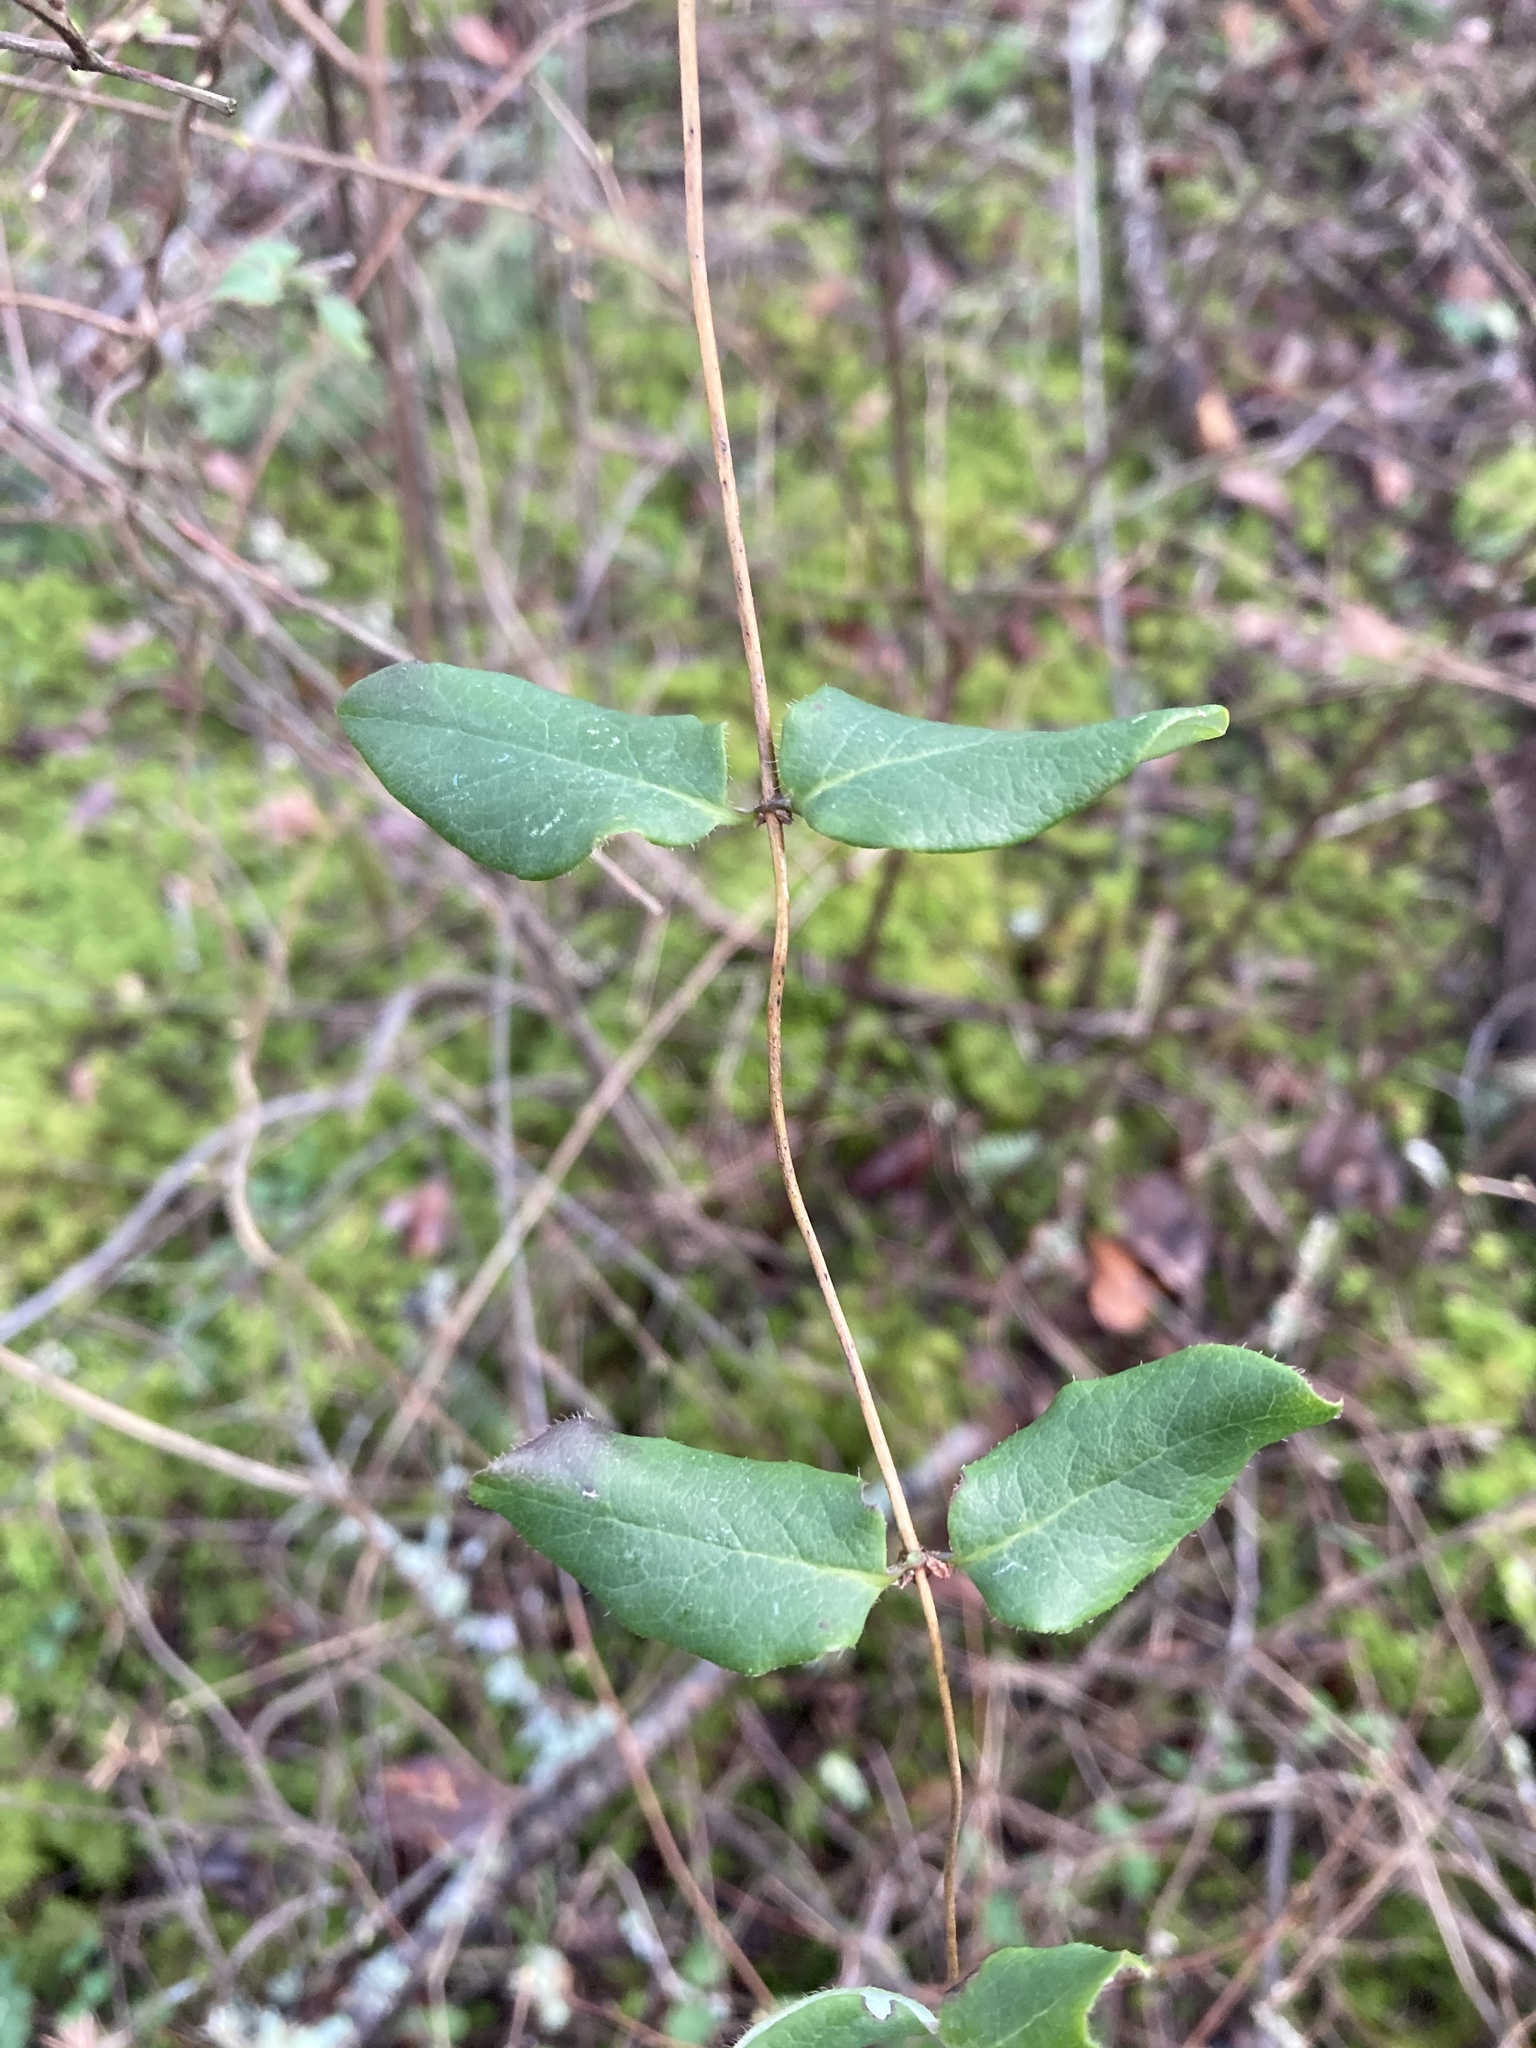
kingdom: Plantae
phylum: Tracheophyta
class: Magnoliopsida
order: Dipsacales
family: Caprifoliaceae
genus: Lonicera
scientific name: Lonicera hispidula
